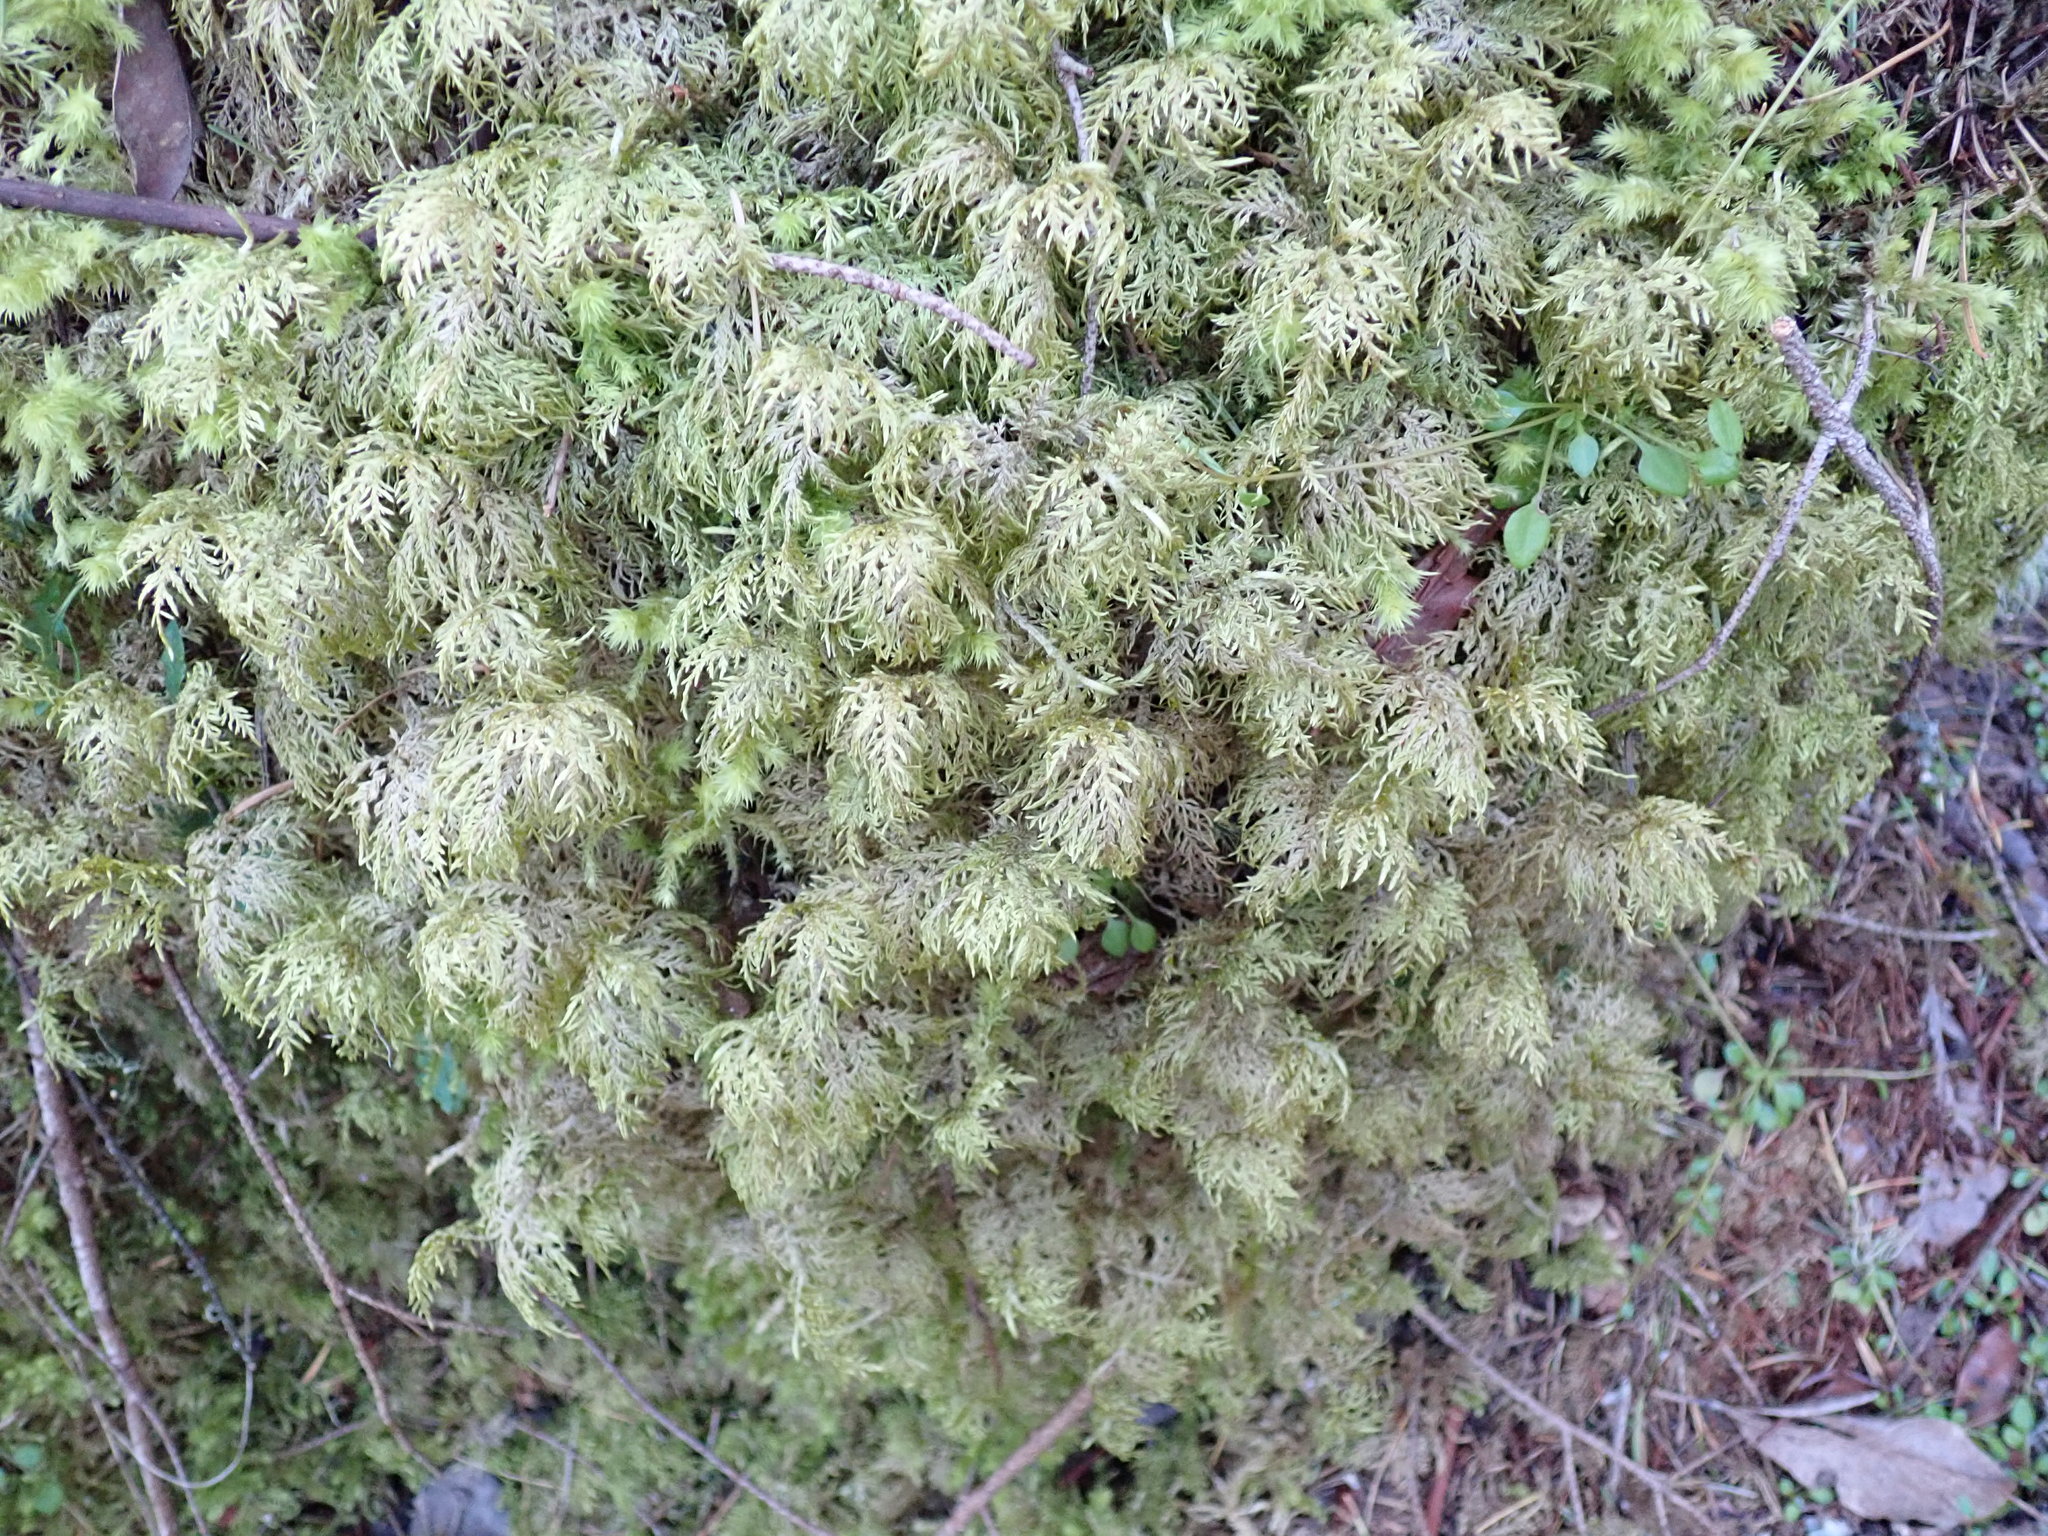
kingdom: Plantae
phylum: Bryophyta
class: Bryopsida
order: Hypnales
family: Hylocomiaceae
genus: Hylocomium
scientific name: Hylocomium splendens
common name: Stairstep moss
